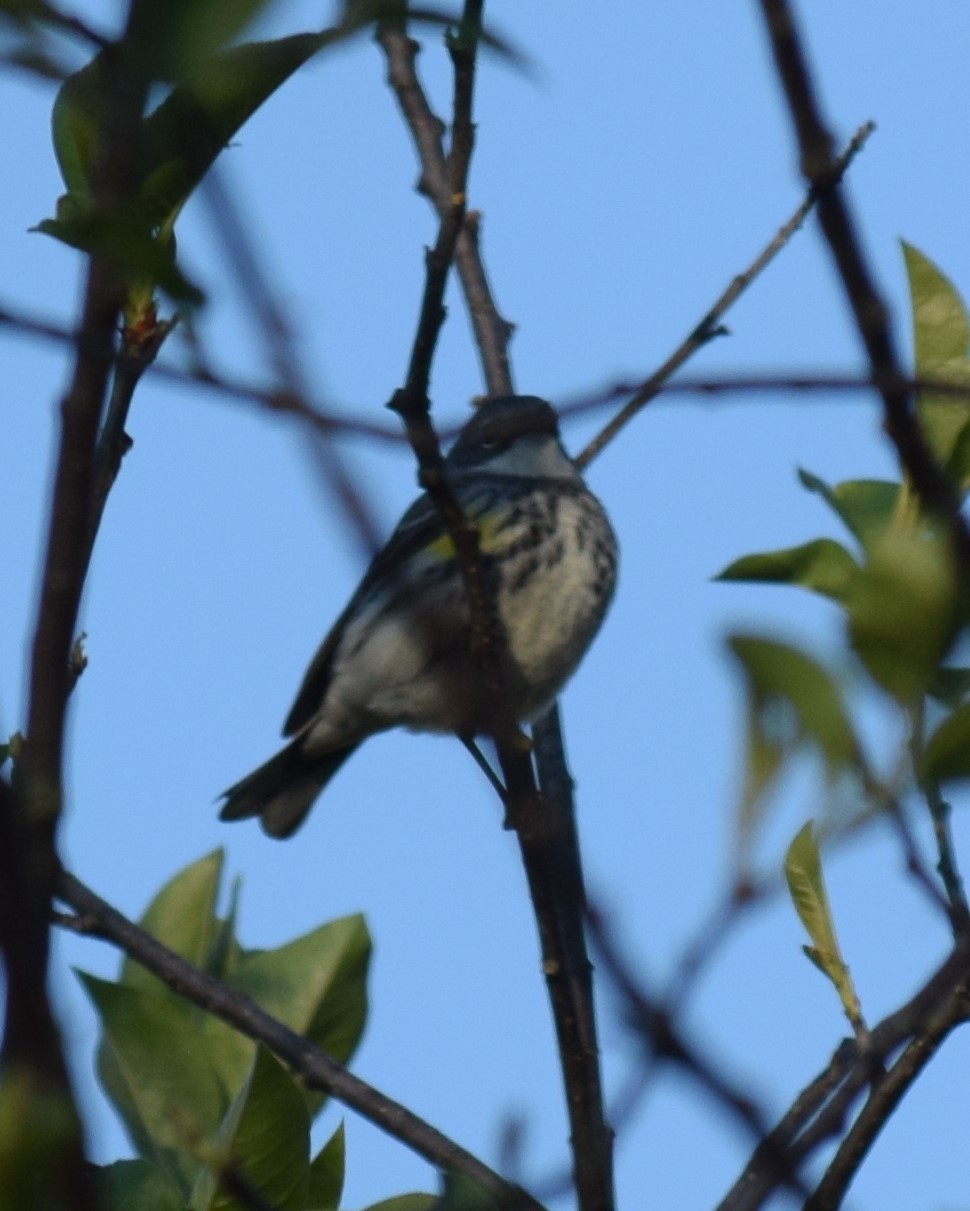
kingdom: Animalia
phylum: Chordata
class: Aves
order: Passeriformes
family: Parulidae
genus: Setophaga
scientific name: Setophaga coronata
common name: Myrtle warbler
